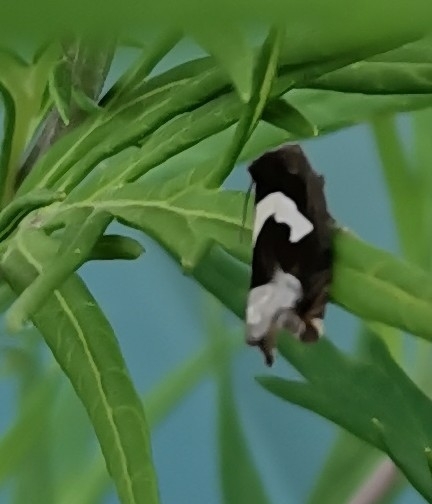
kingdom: Animalia
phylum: Arthropoda
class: Insecta
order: Lepidoptera
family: Tortricidae
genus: Epiblema
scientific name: Epiblema foenella
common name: White-foot bell
